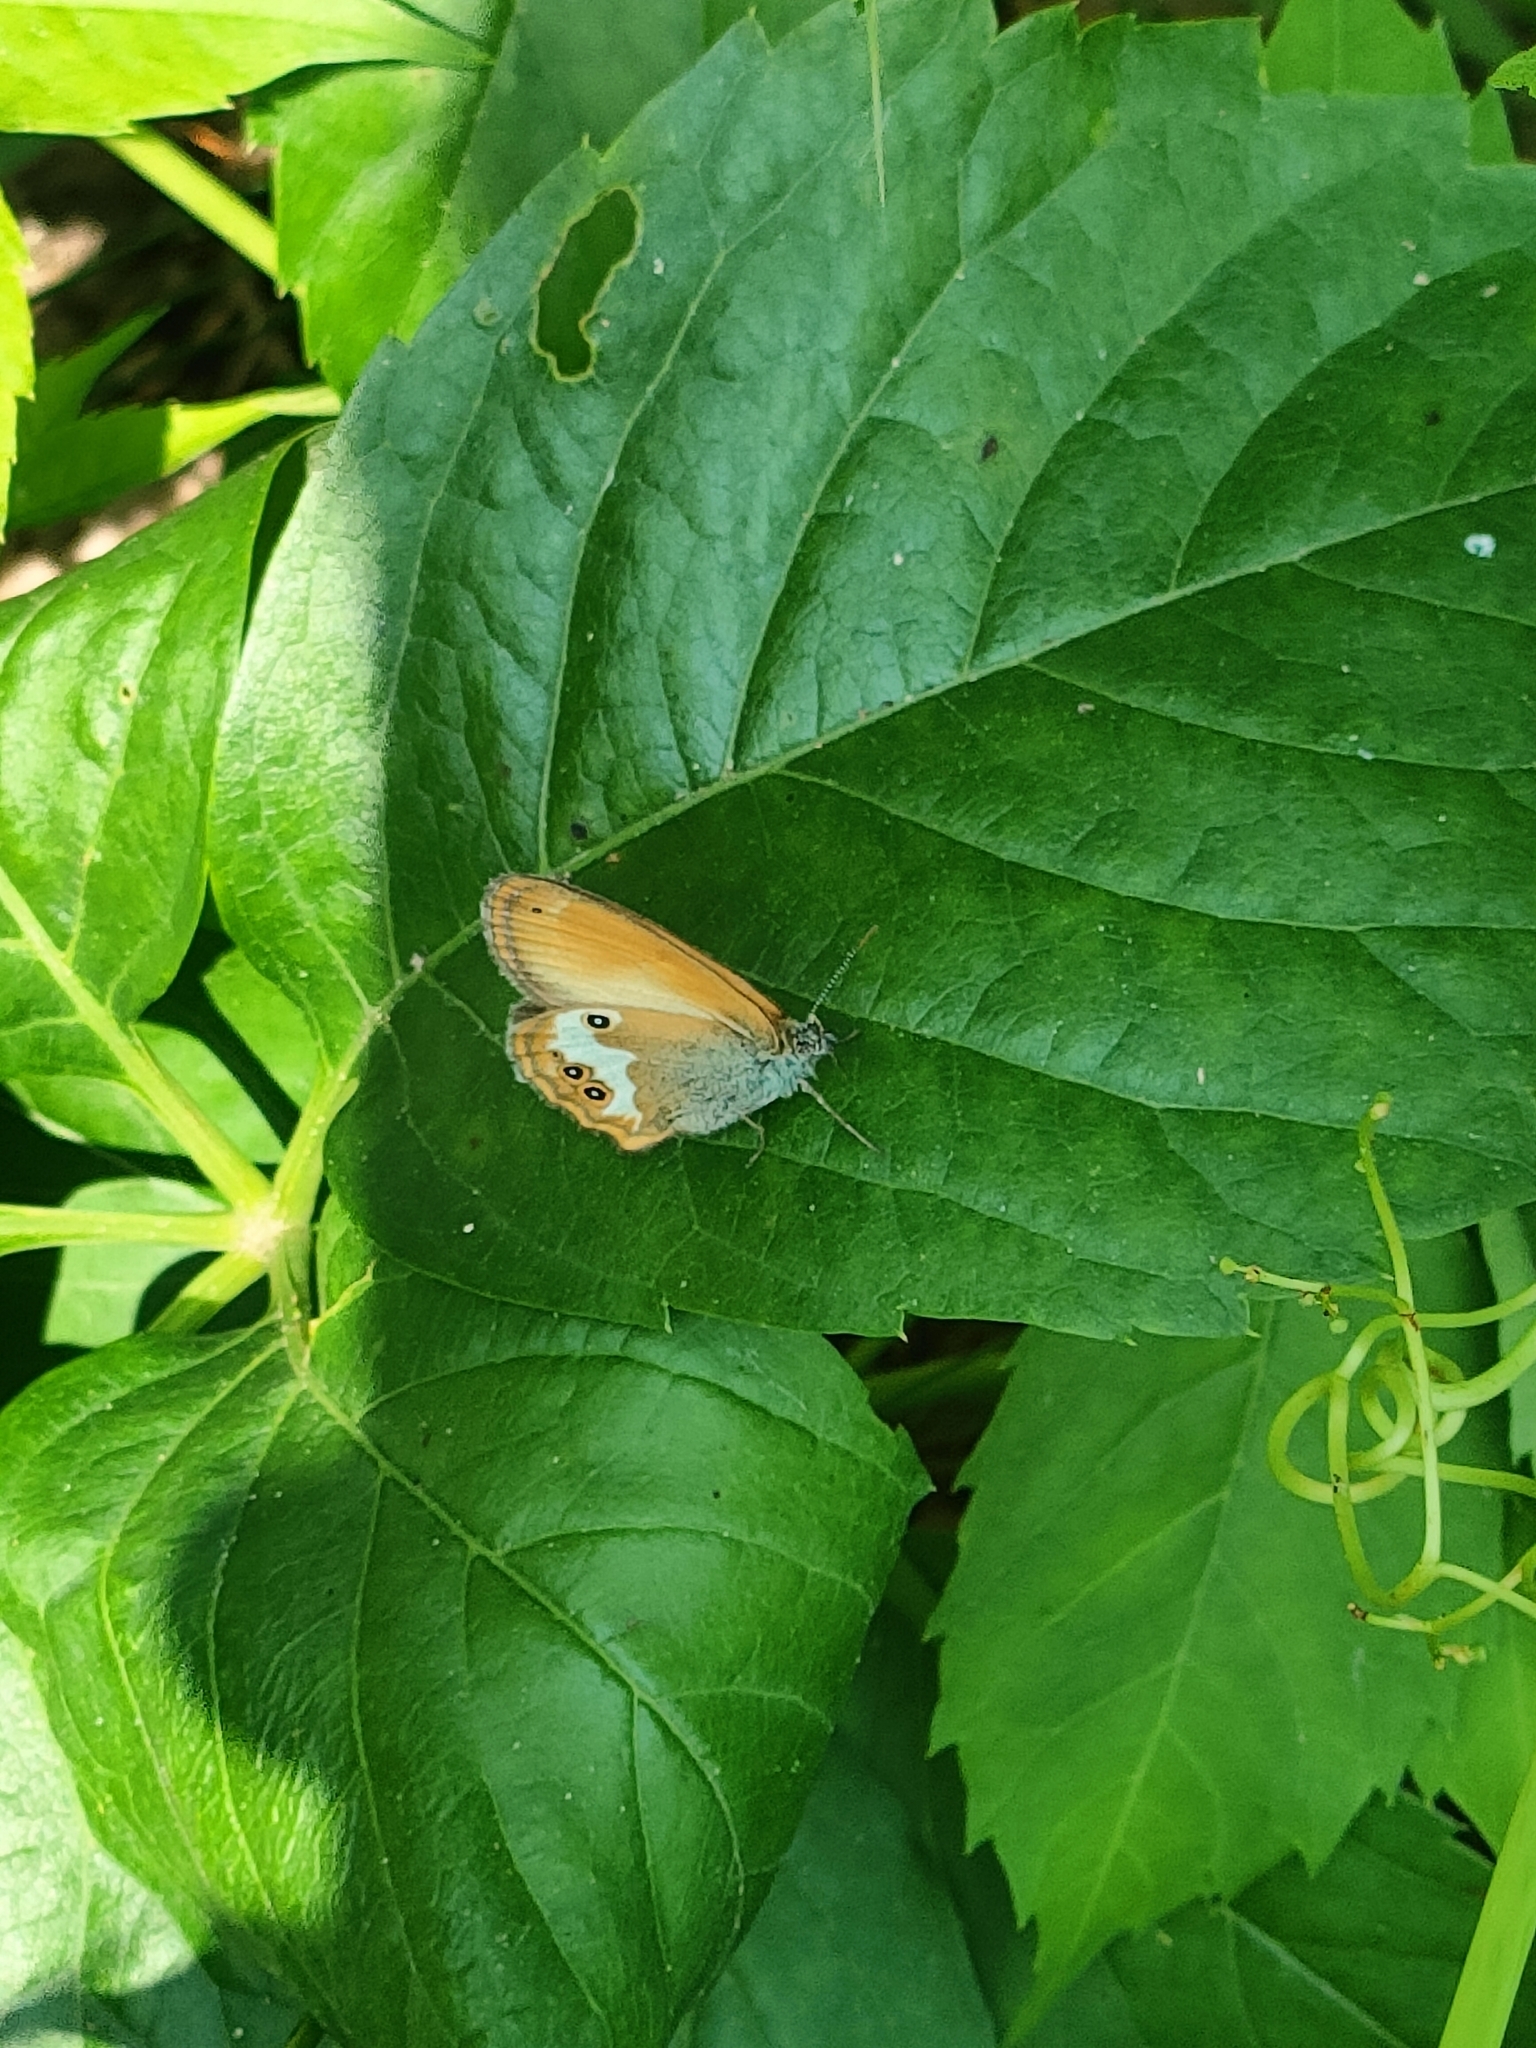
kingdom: Animalia
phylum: Arthropoda
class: Insecta
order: Lepidoptera
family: Nymphalidae
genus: Coenonympha
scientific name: Coenonympha arcania
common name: Pearly heath
